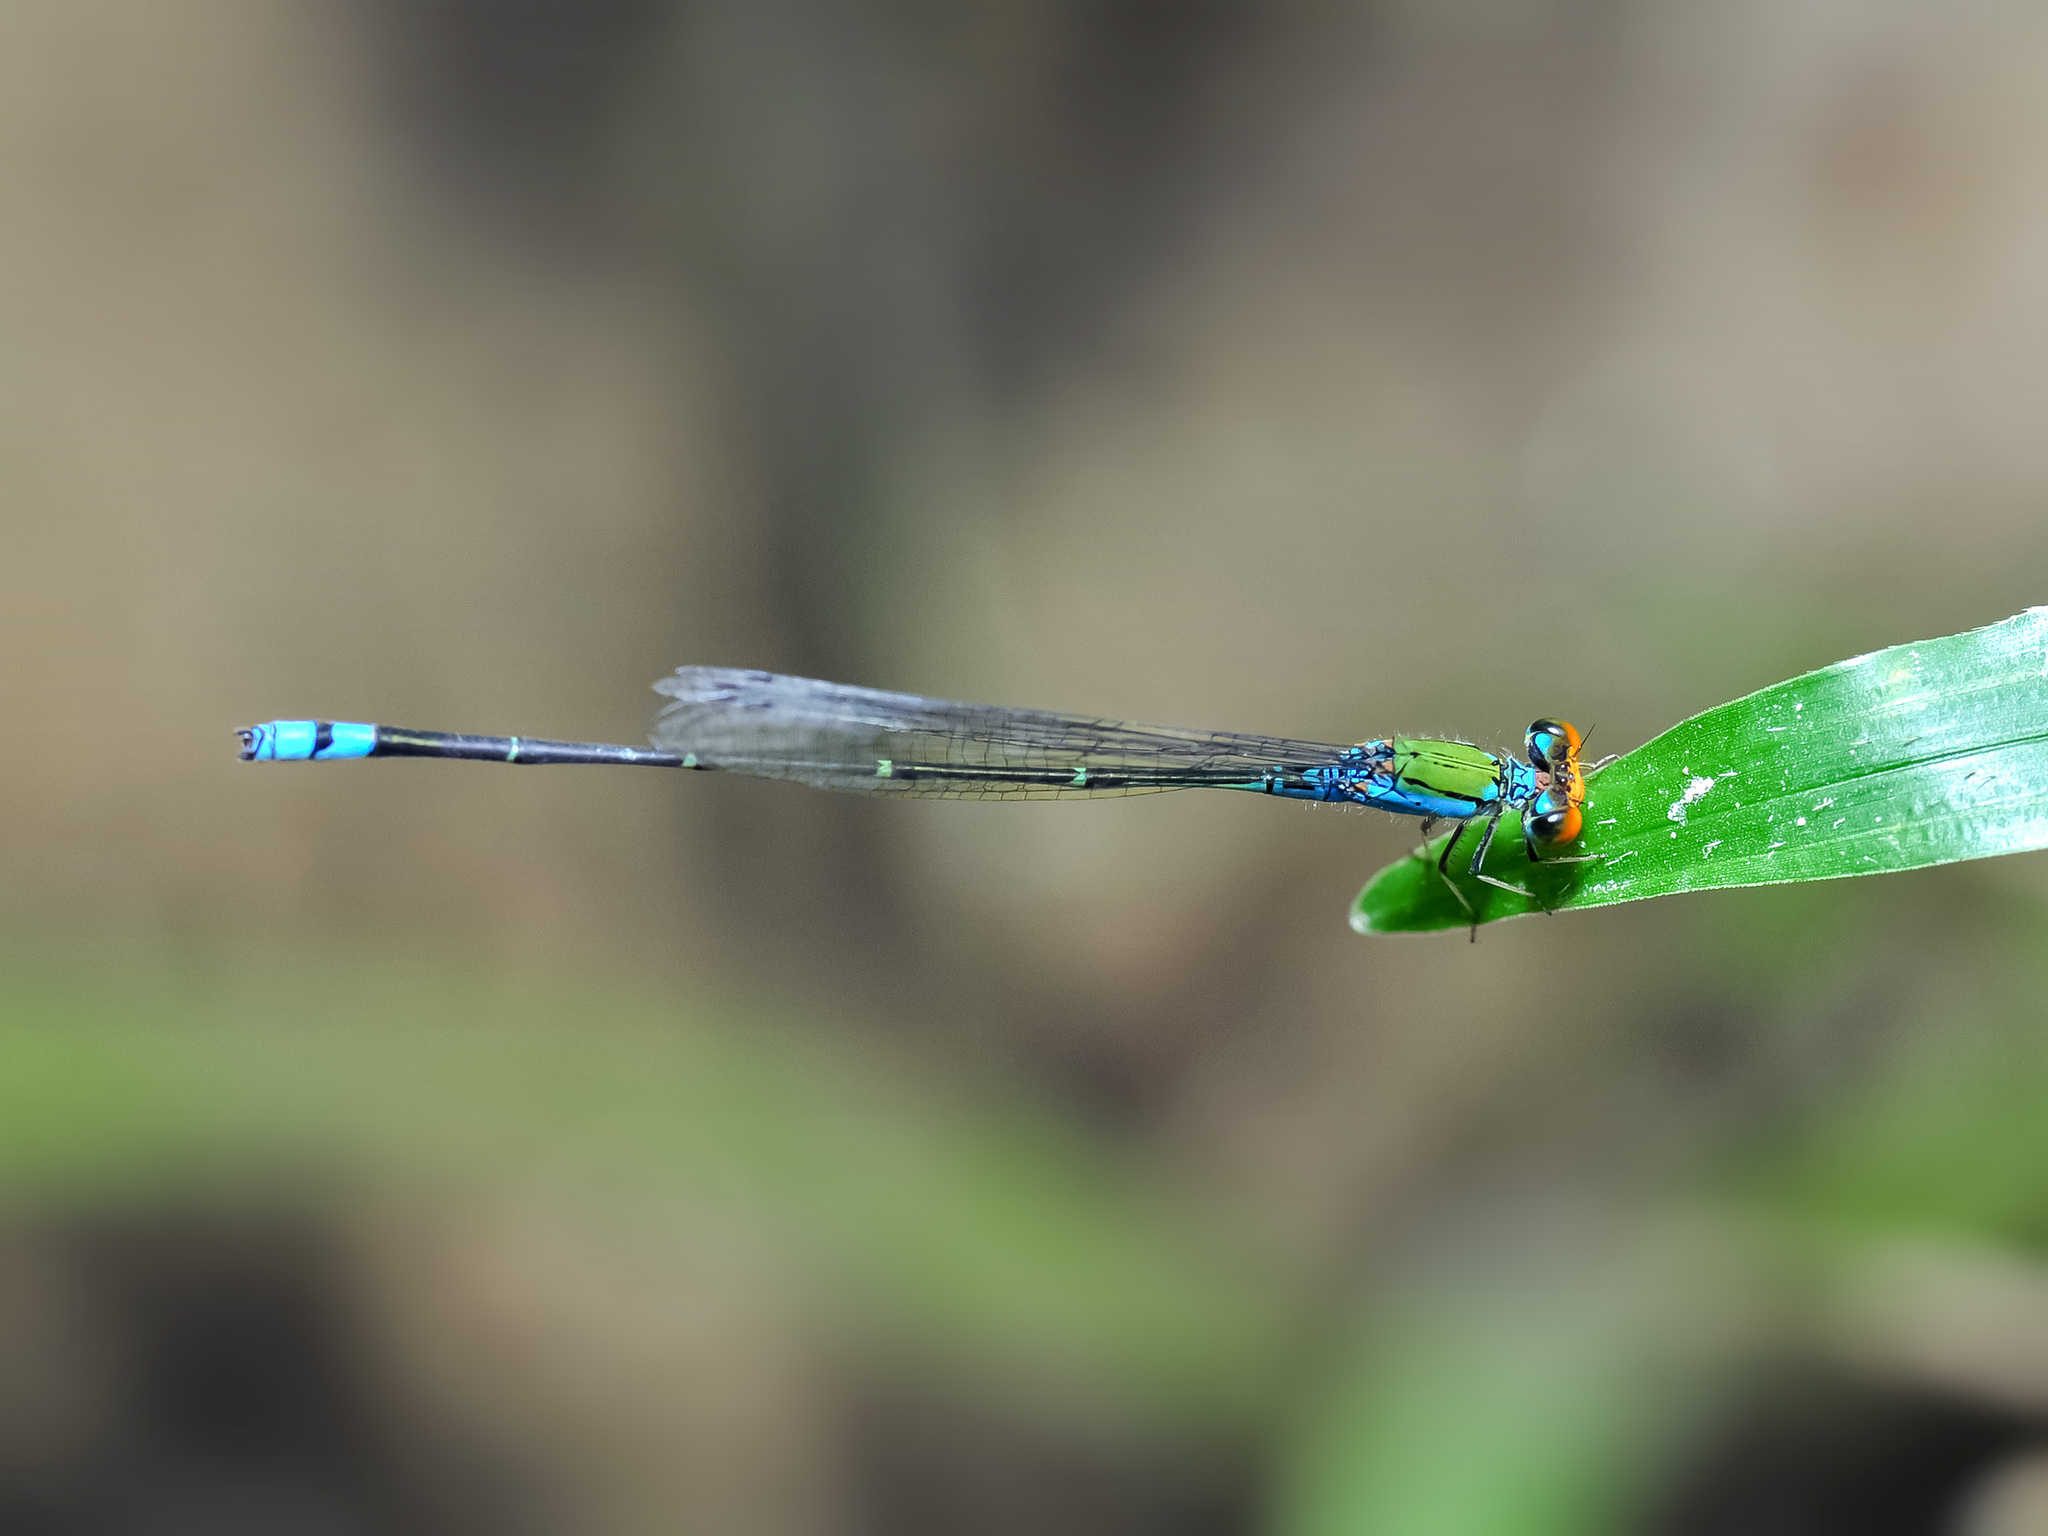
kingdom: Animalia
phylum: Arthropoda
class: Insecta
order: Odonata
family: Coenagrionidae
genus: Pseudagrion
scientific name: Pseudagrion rubriceps
